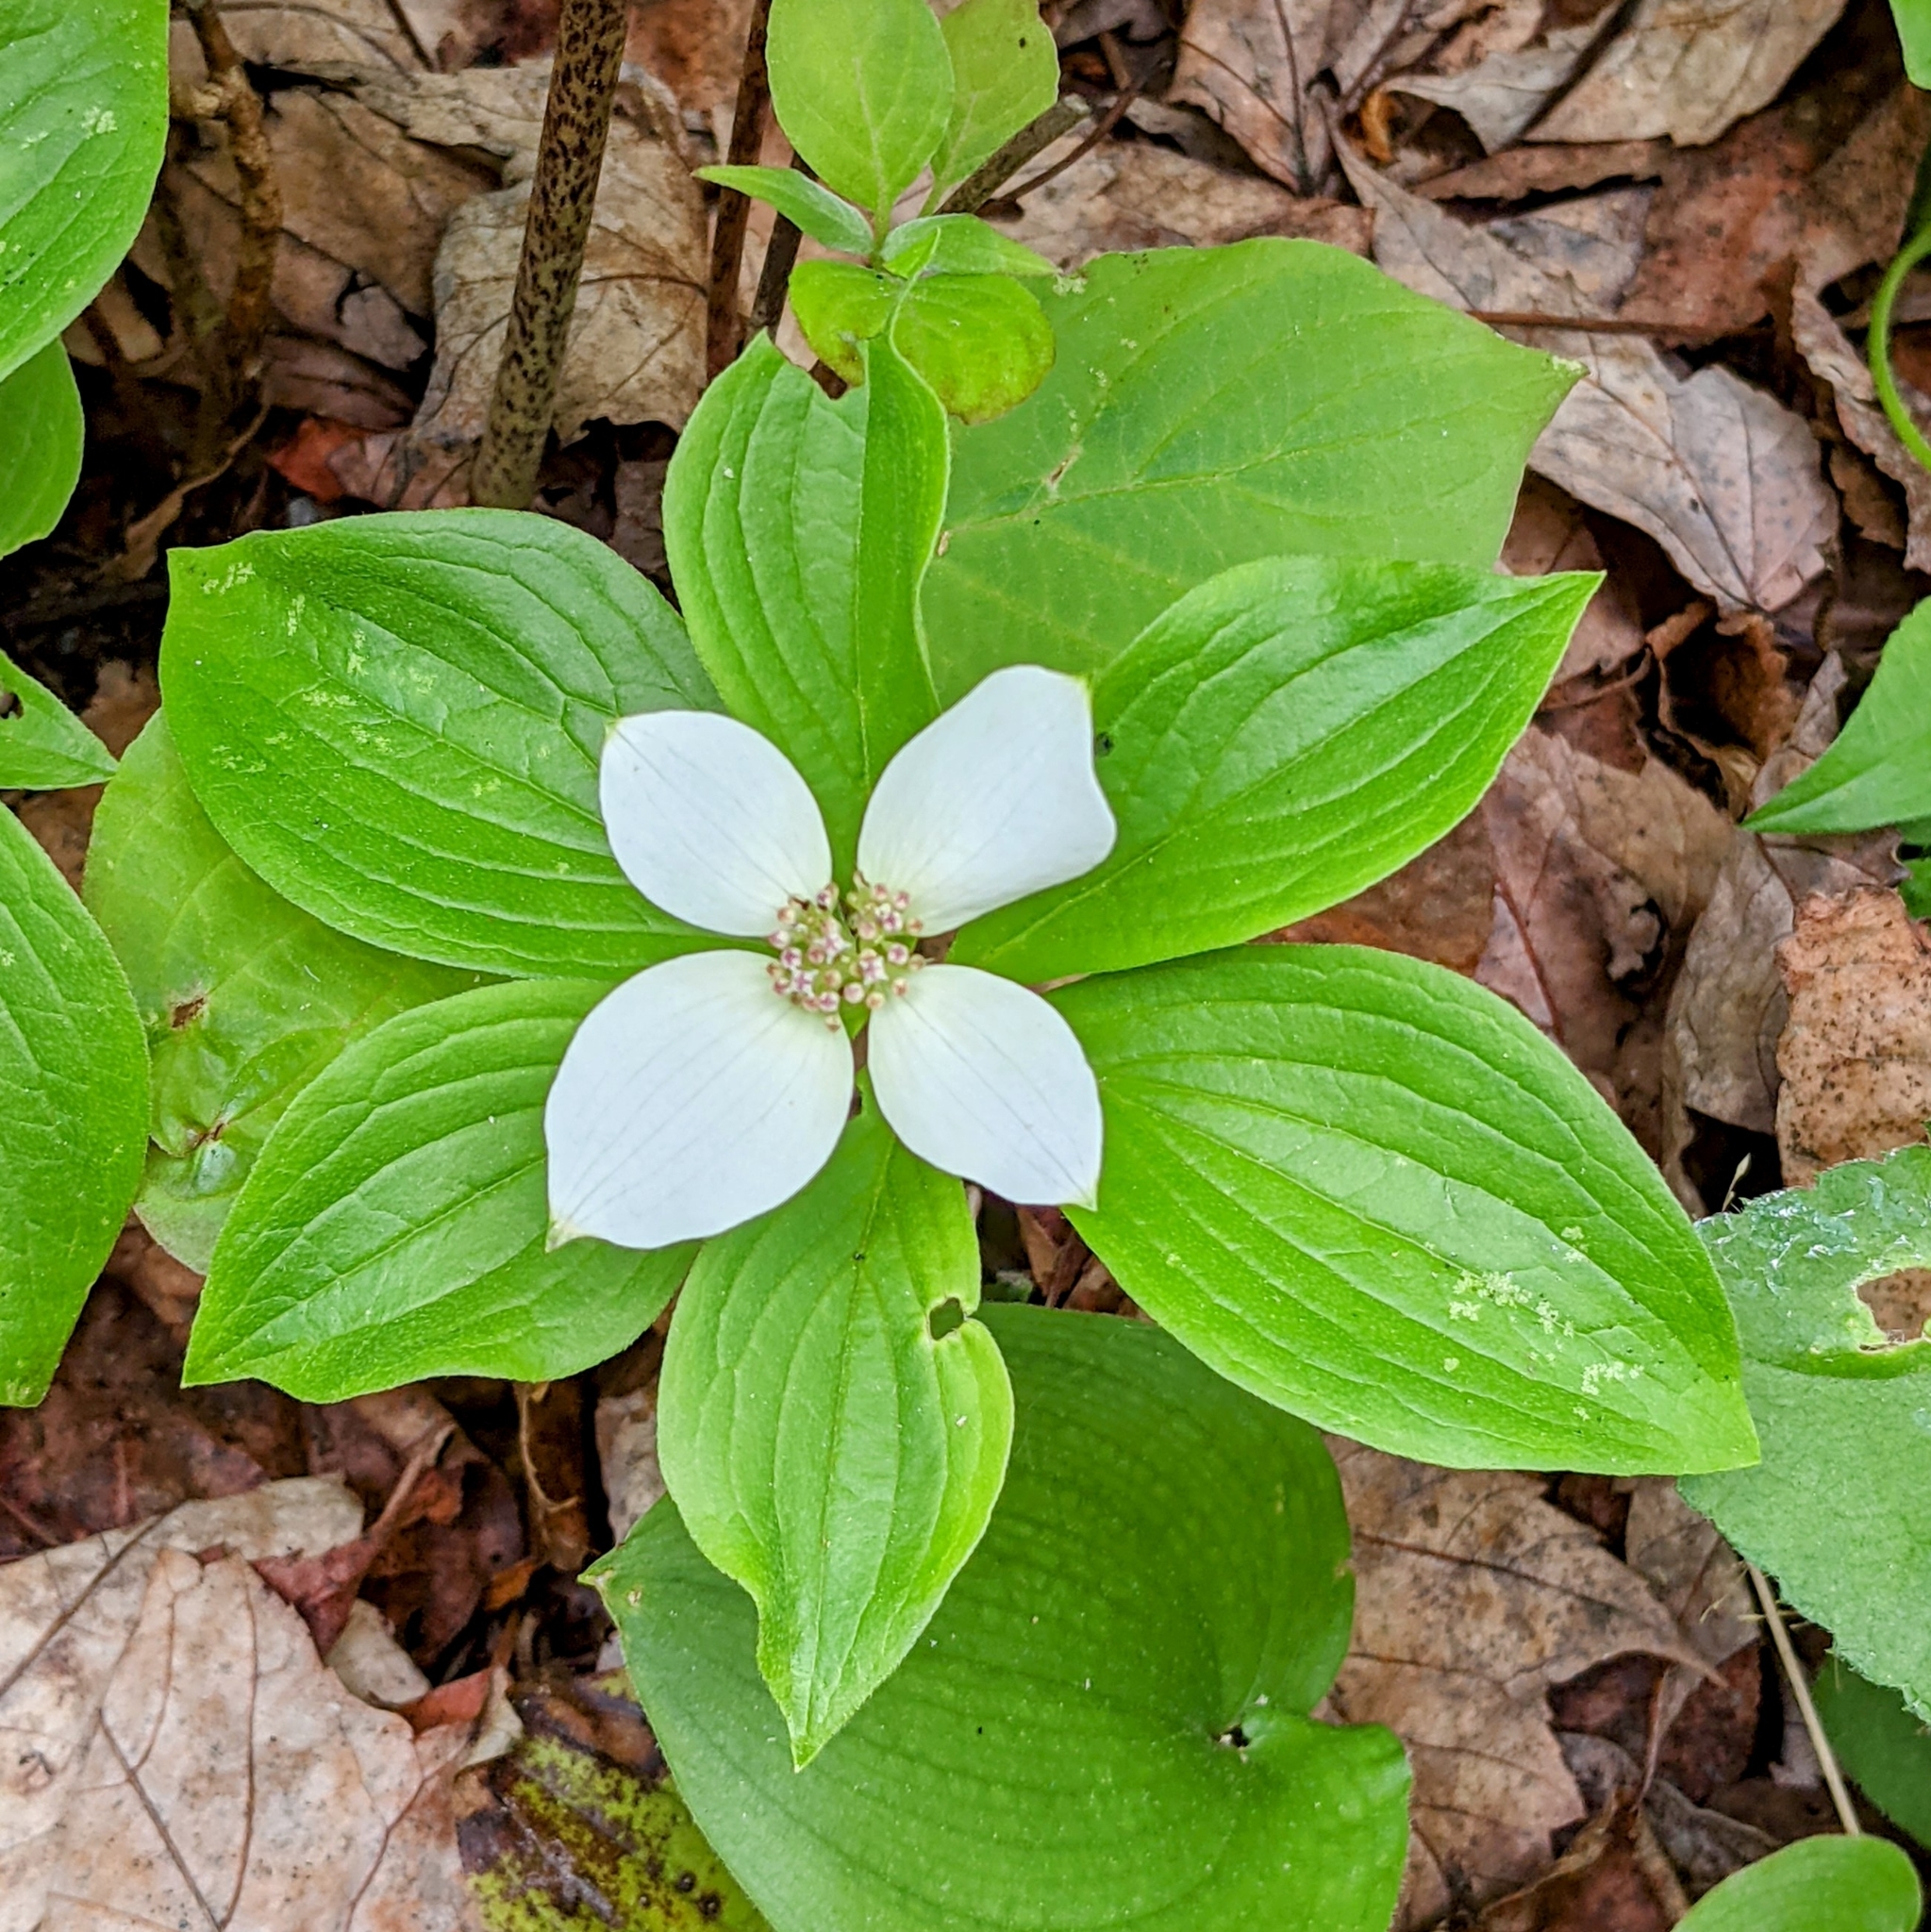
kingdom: Plantae
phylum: Tracheophyta
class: Magnoliopsida
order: Cornales
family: Cornaceae
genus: Cornus
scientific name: Cornus canadensis
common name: Creeping dogwood
